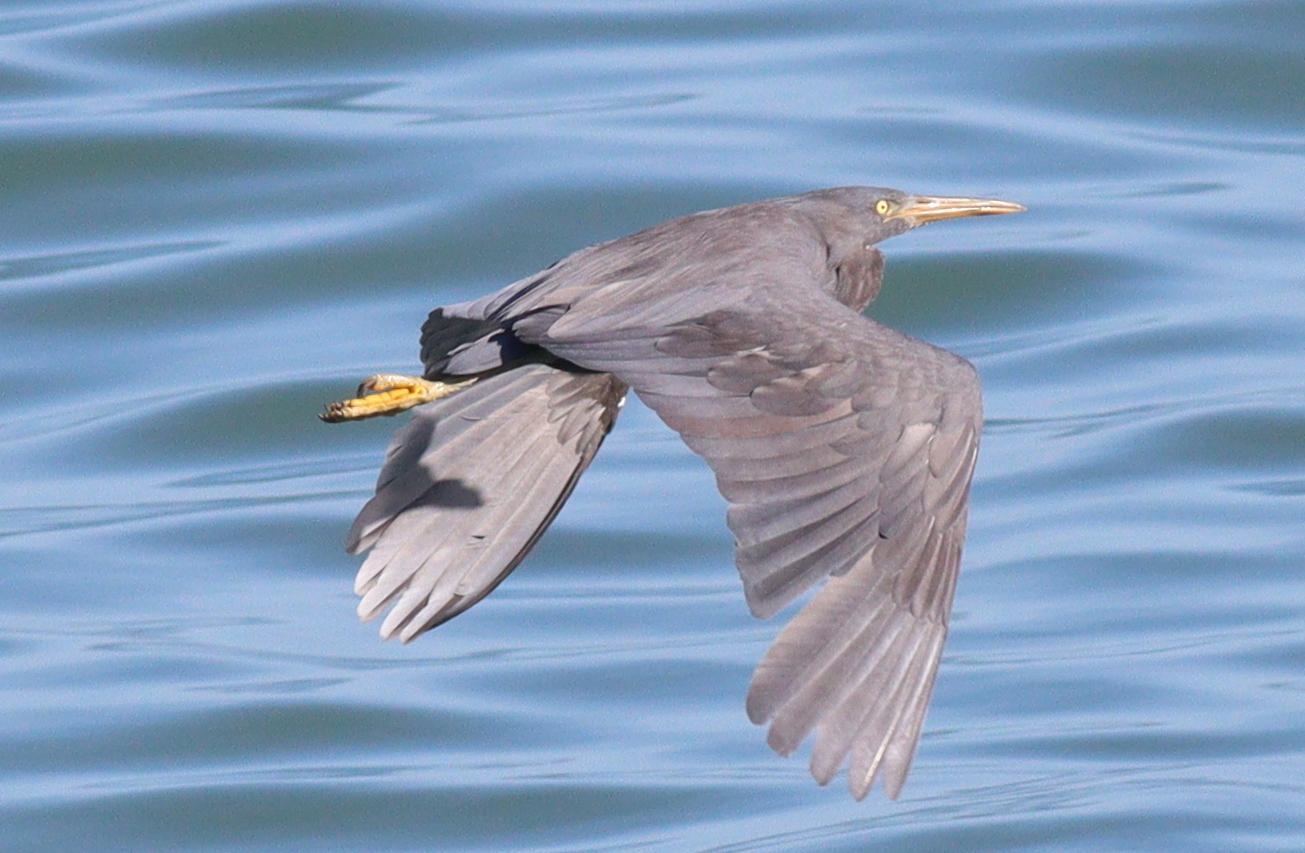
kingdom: Animalia
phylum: Chordata
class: Aves
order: Pelecaniformes
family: Ardeidae
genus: Egretta
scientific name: Egretta sacra
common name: Pacific reef heron
